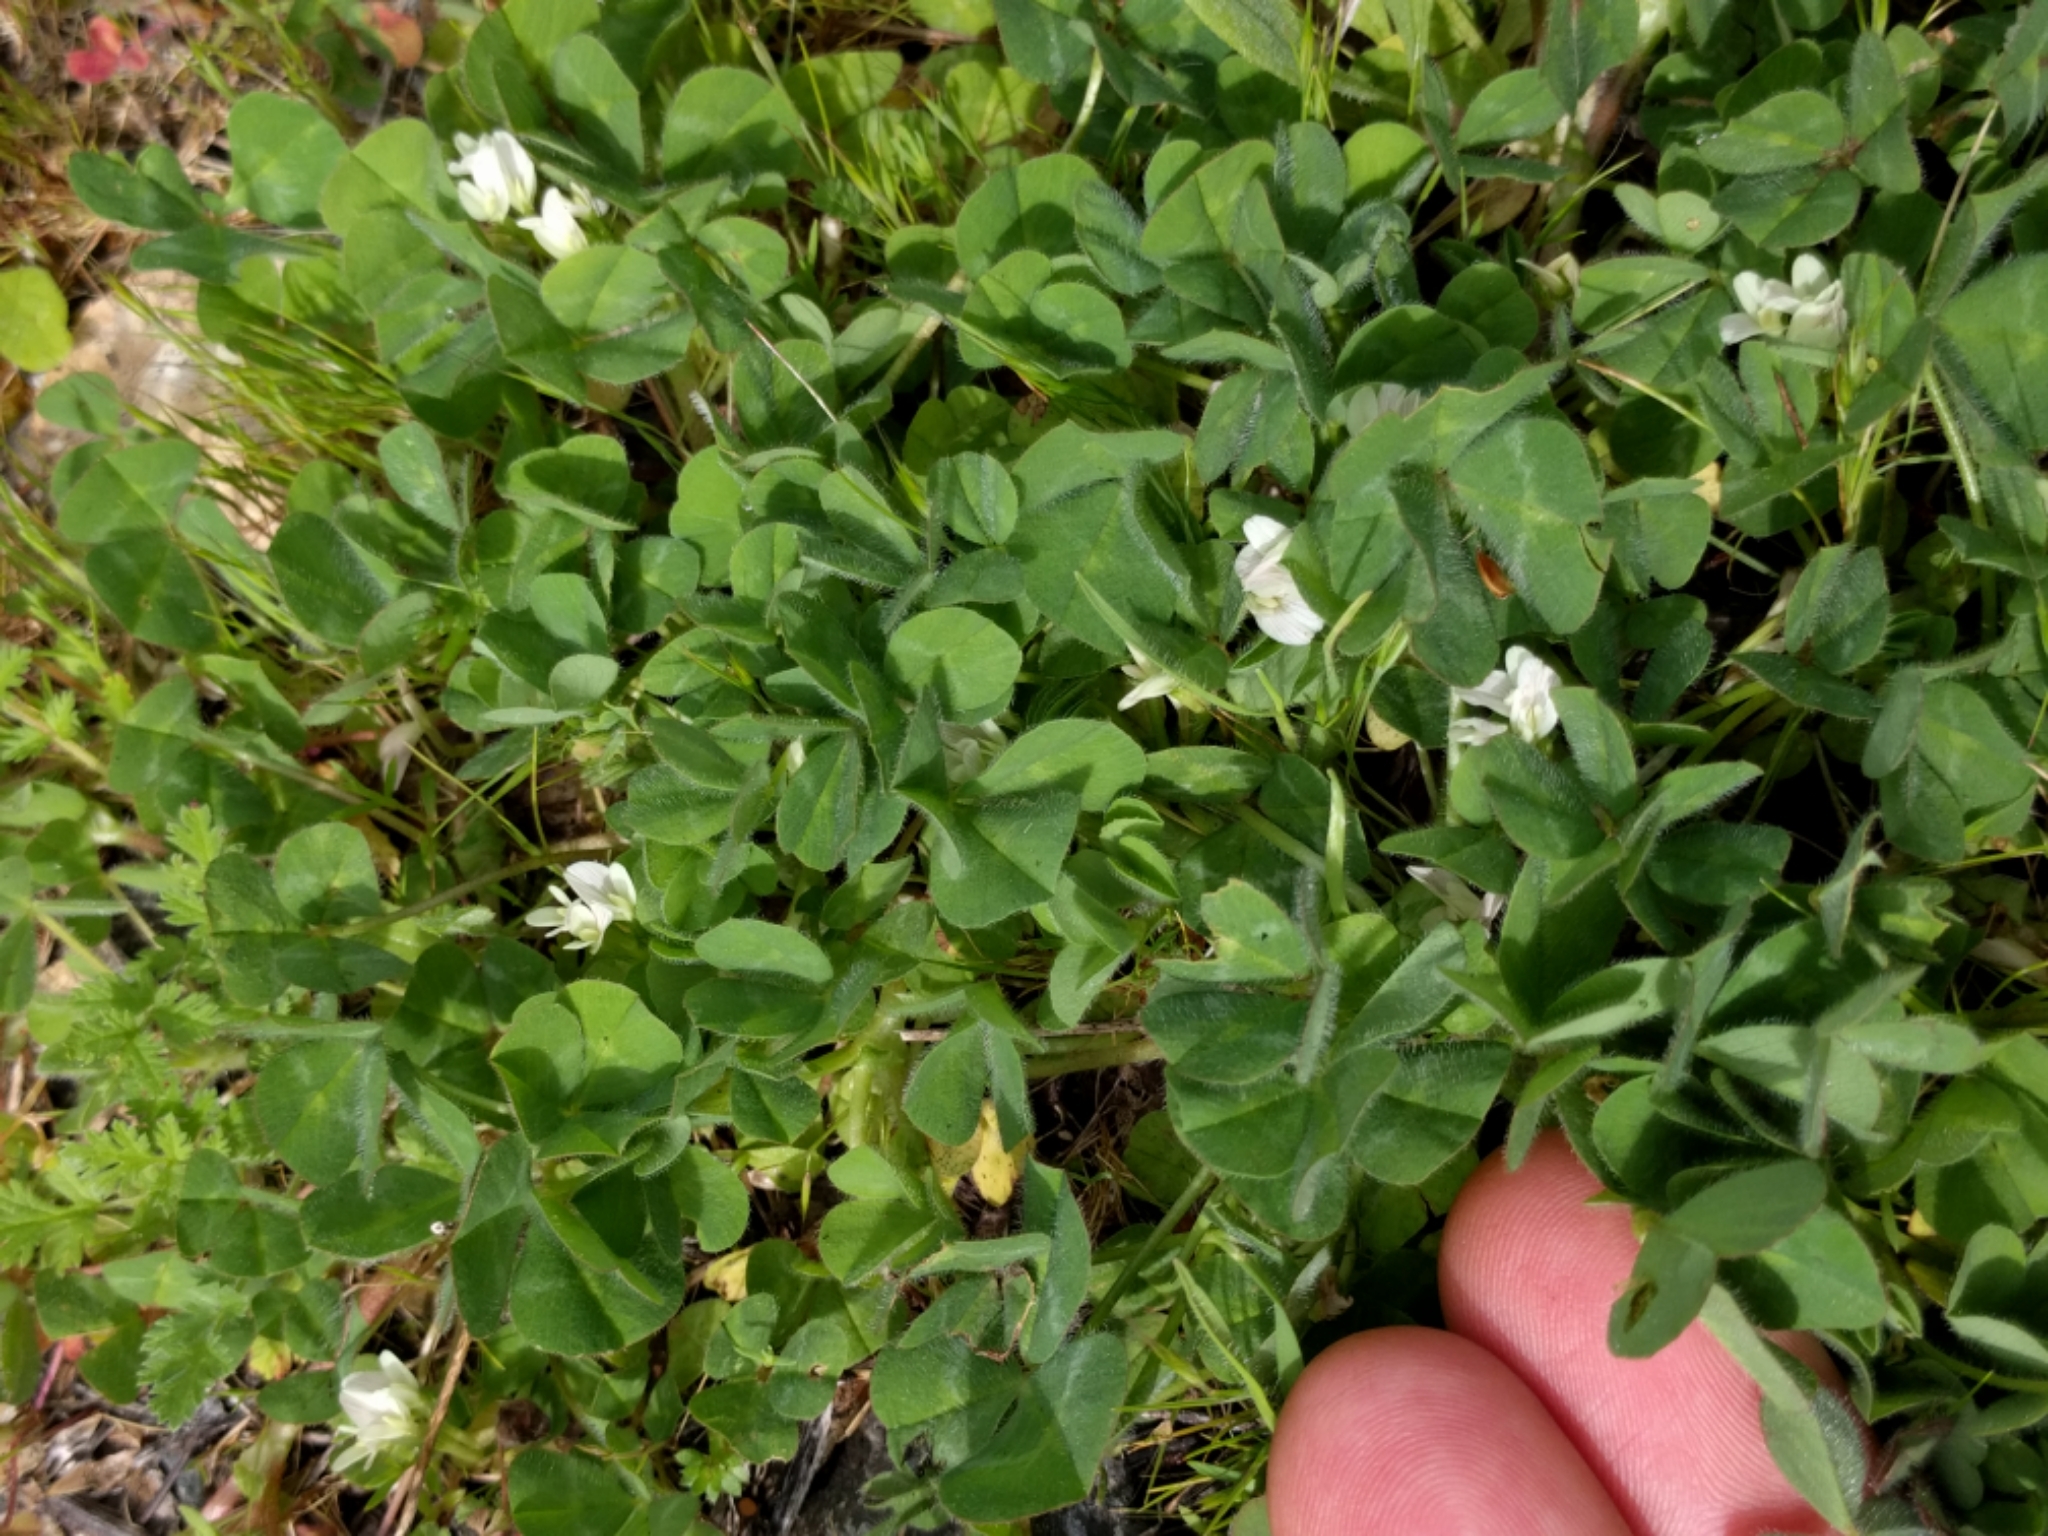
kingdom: Plantae
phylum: Tracheophyta
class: Magnoliopsida
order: Fabales
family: Fabaceae
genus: Trifolium
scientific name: Trifolium subterraneum
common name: Subterranean clover
